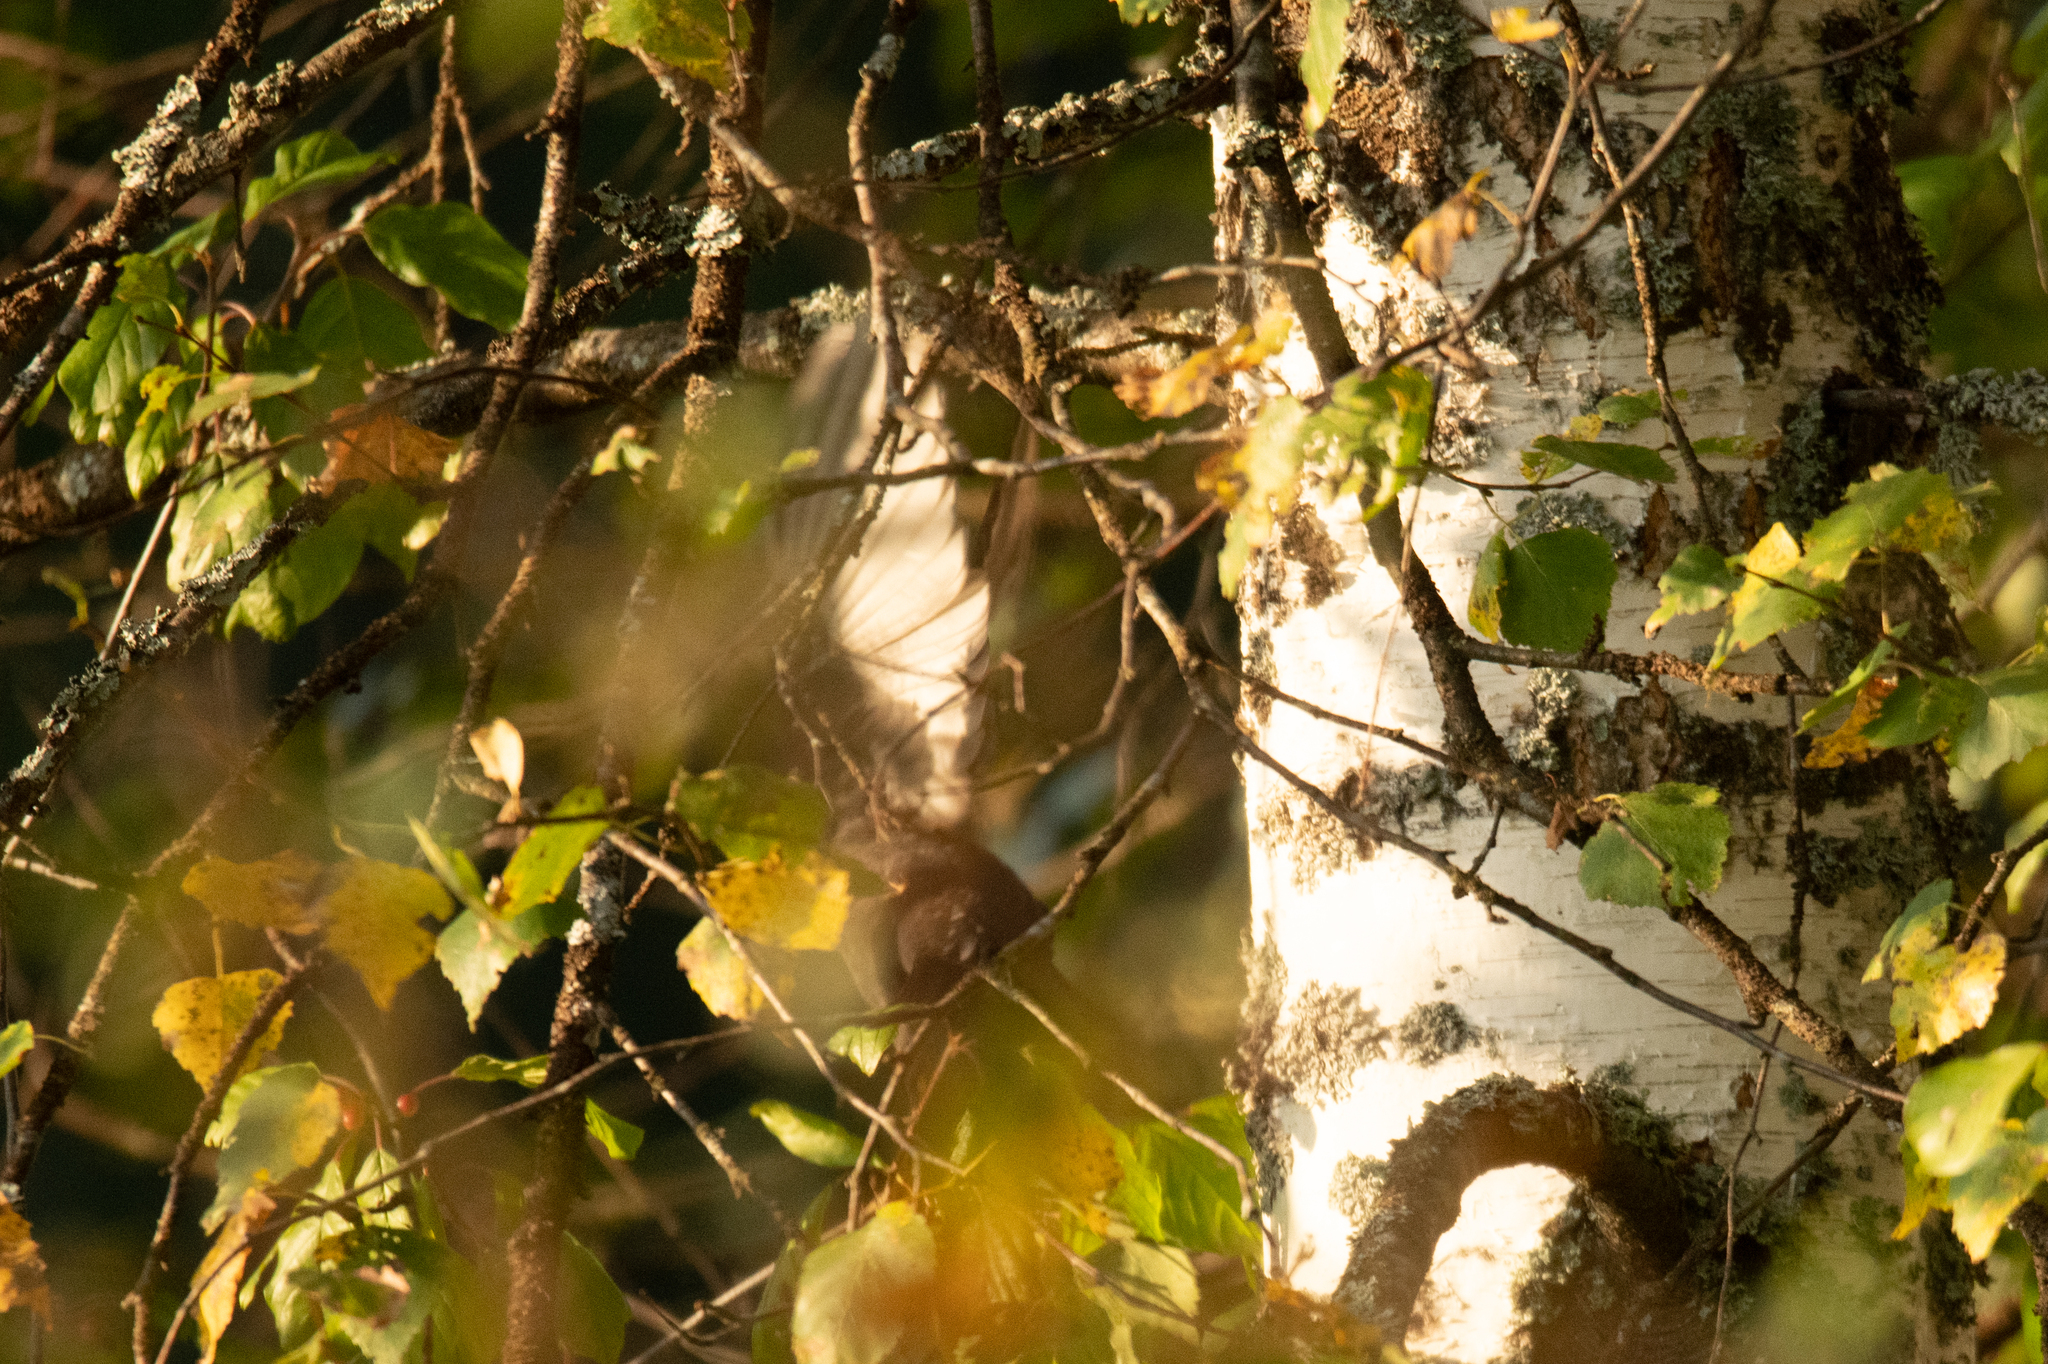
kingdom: Animalia
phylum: Chordata
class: Aves
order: Passeriformes
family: Turdidae
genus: Turdus
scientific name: Turdus merula
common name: Common blackbird
